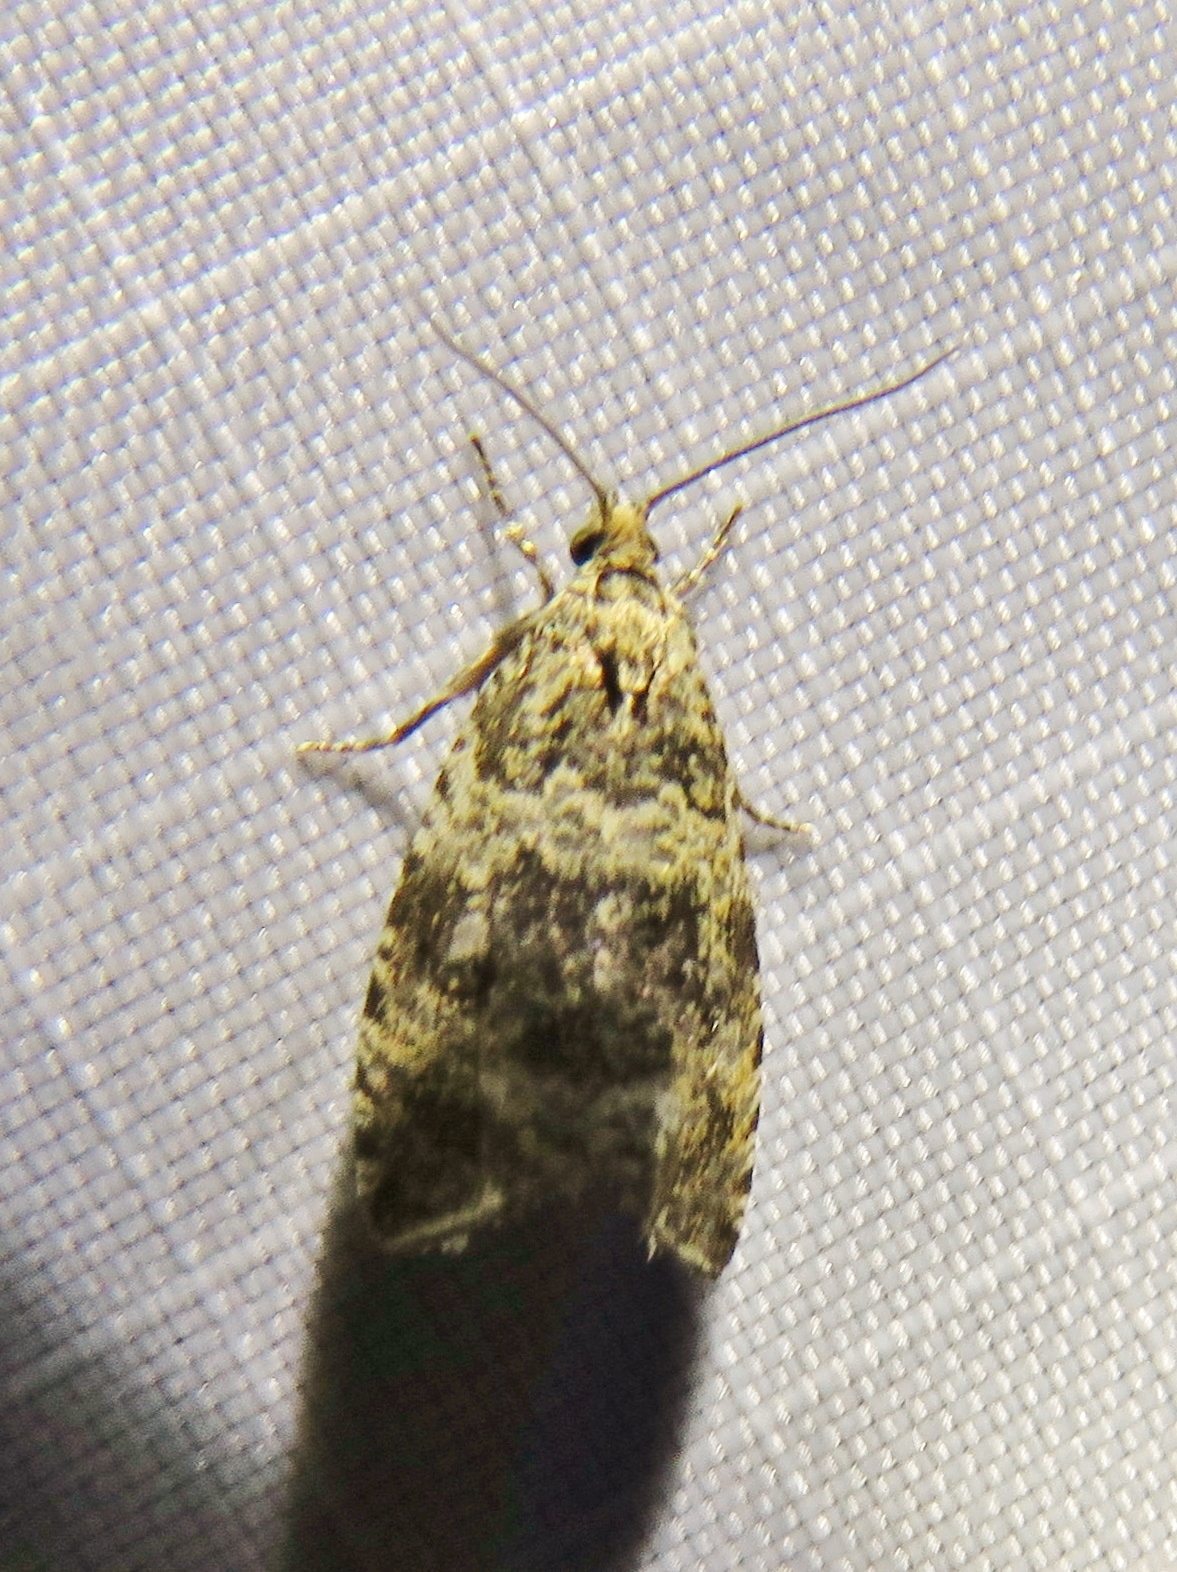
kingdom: Animalia
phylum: Arthropoda
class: Insecta
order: Lepidoptera
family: Tortricidae
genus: Syricoris
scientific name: Syricoris lacunana
